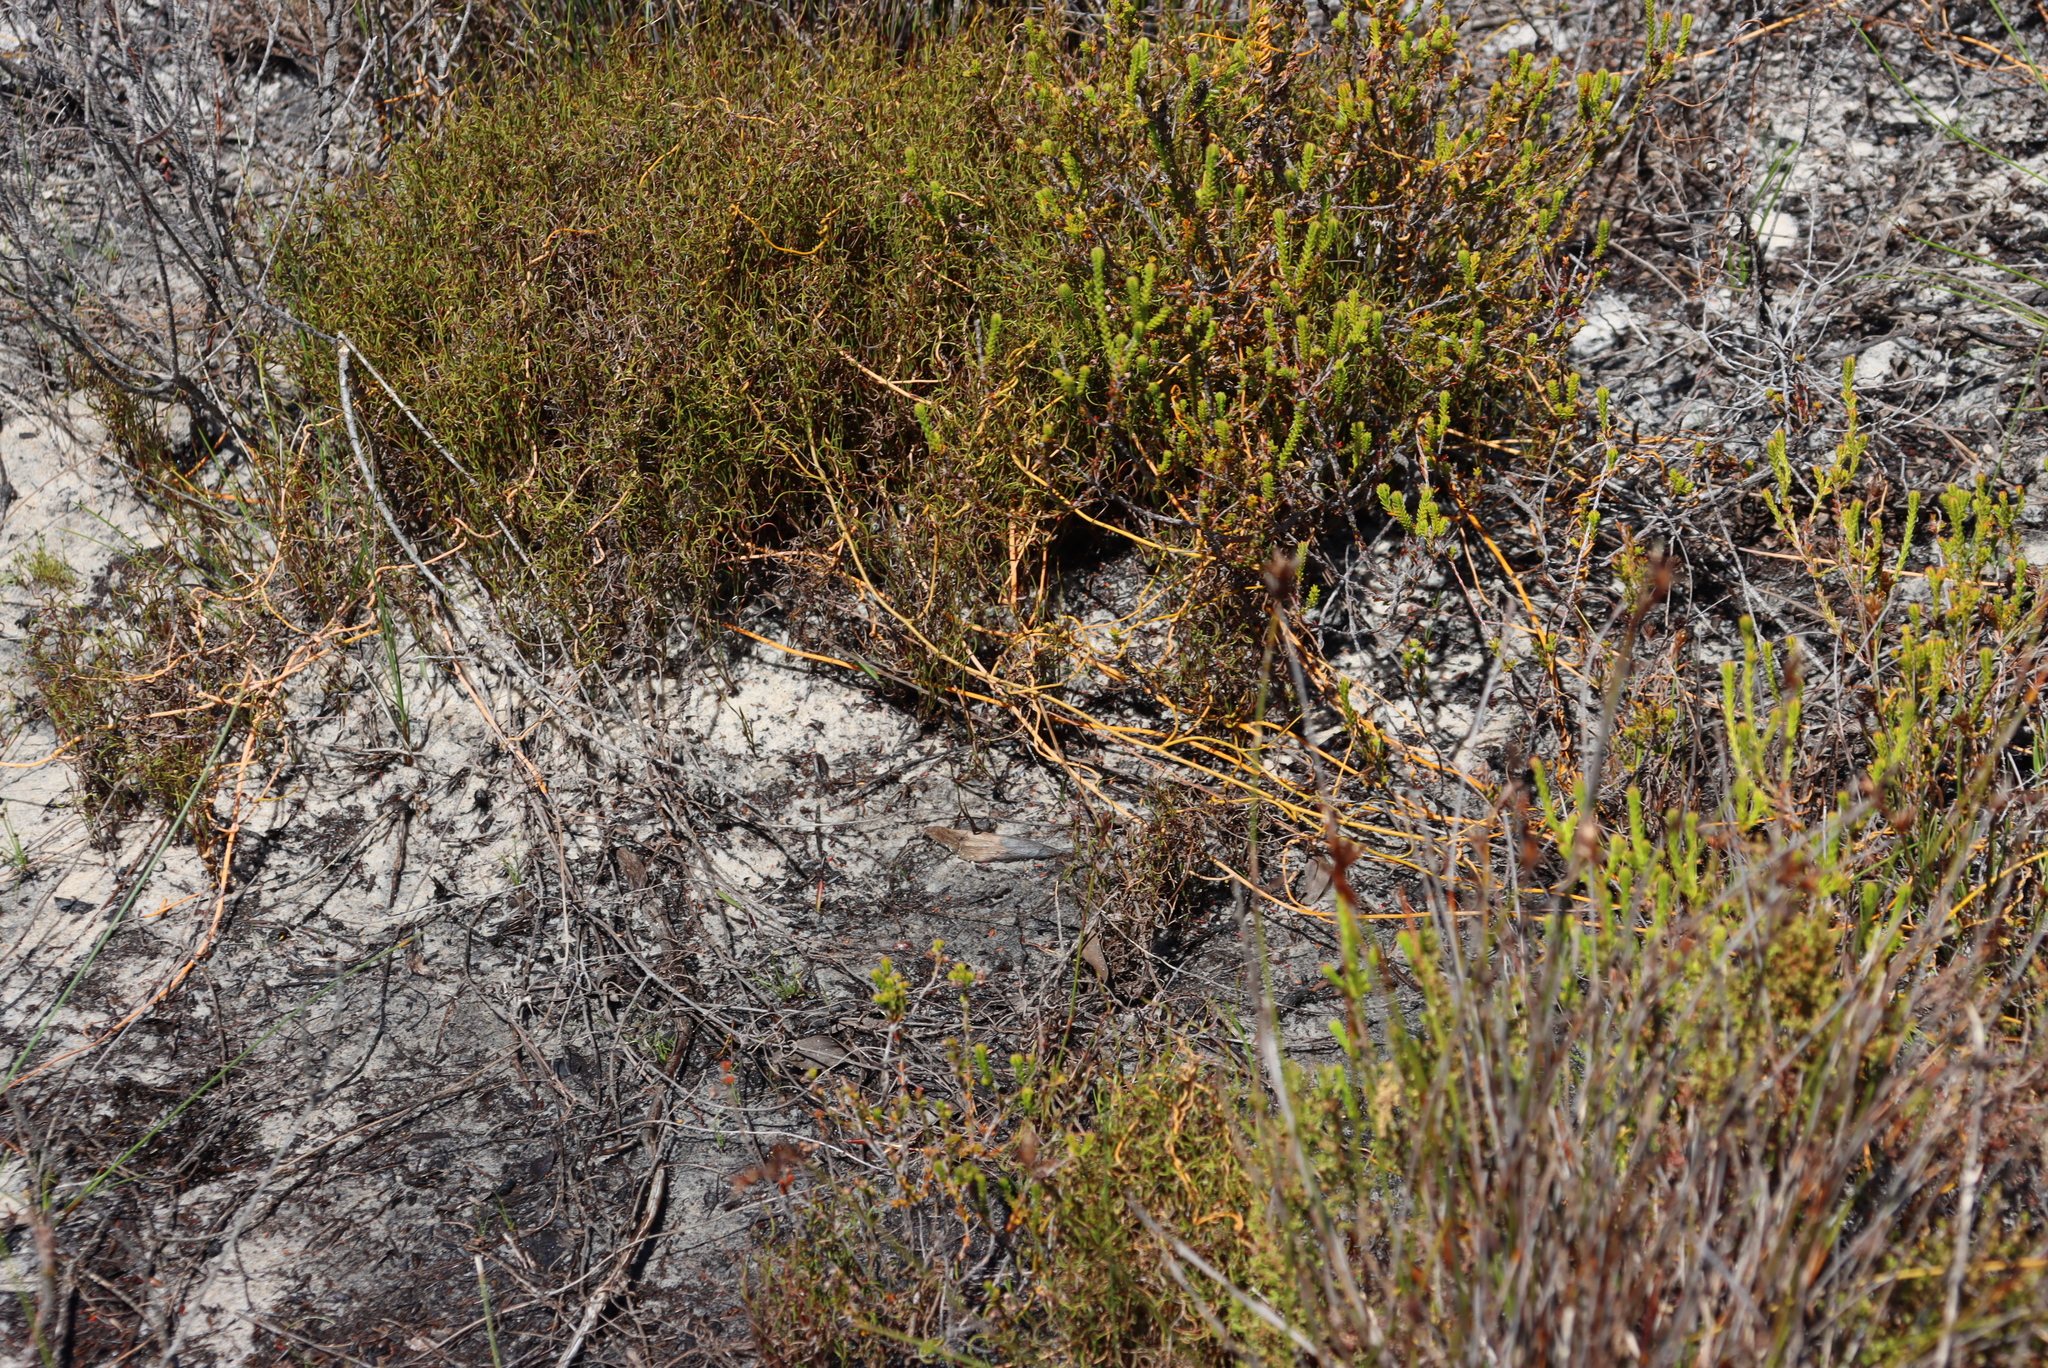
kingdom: Plantae
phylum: Tracheophyta
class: Magnoliopsida
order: Laurales
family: Lauraceae
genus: Cassytha
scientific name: Cassytha ciliolata
